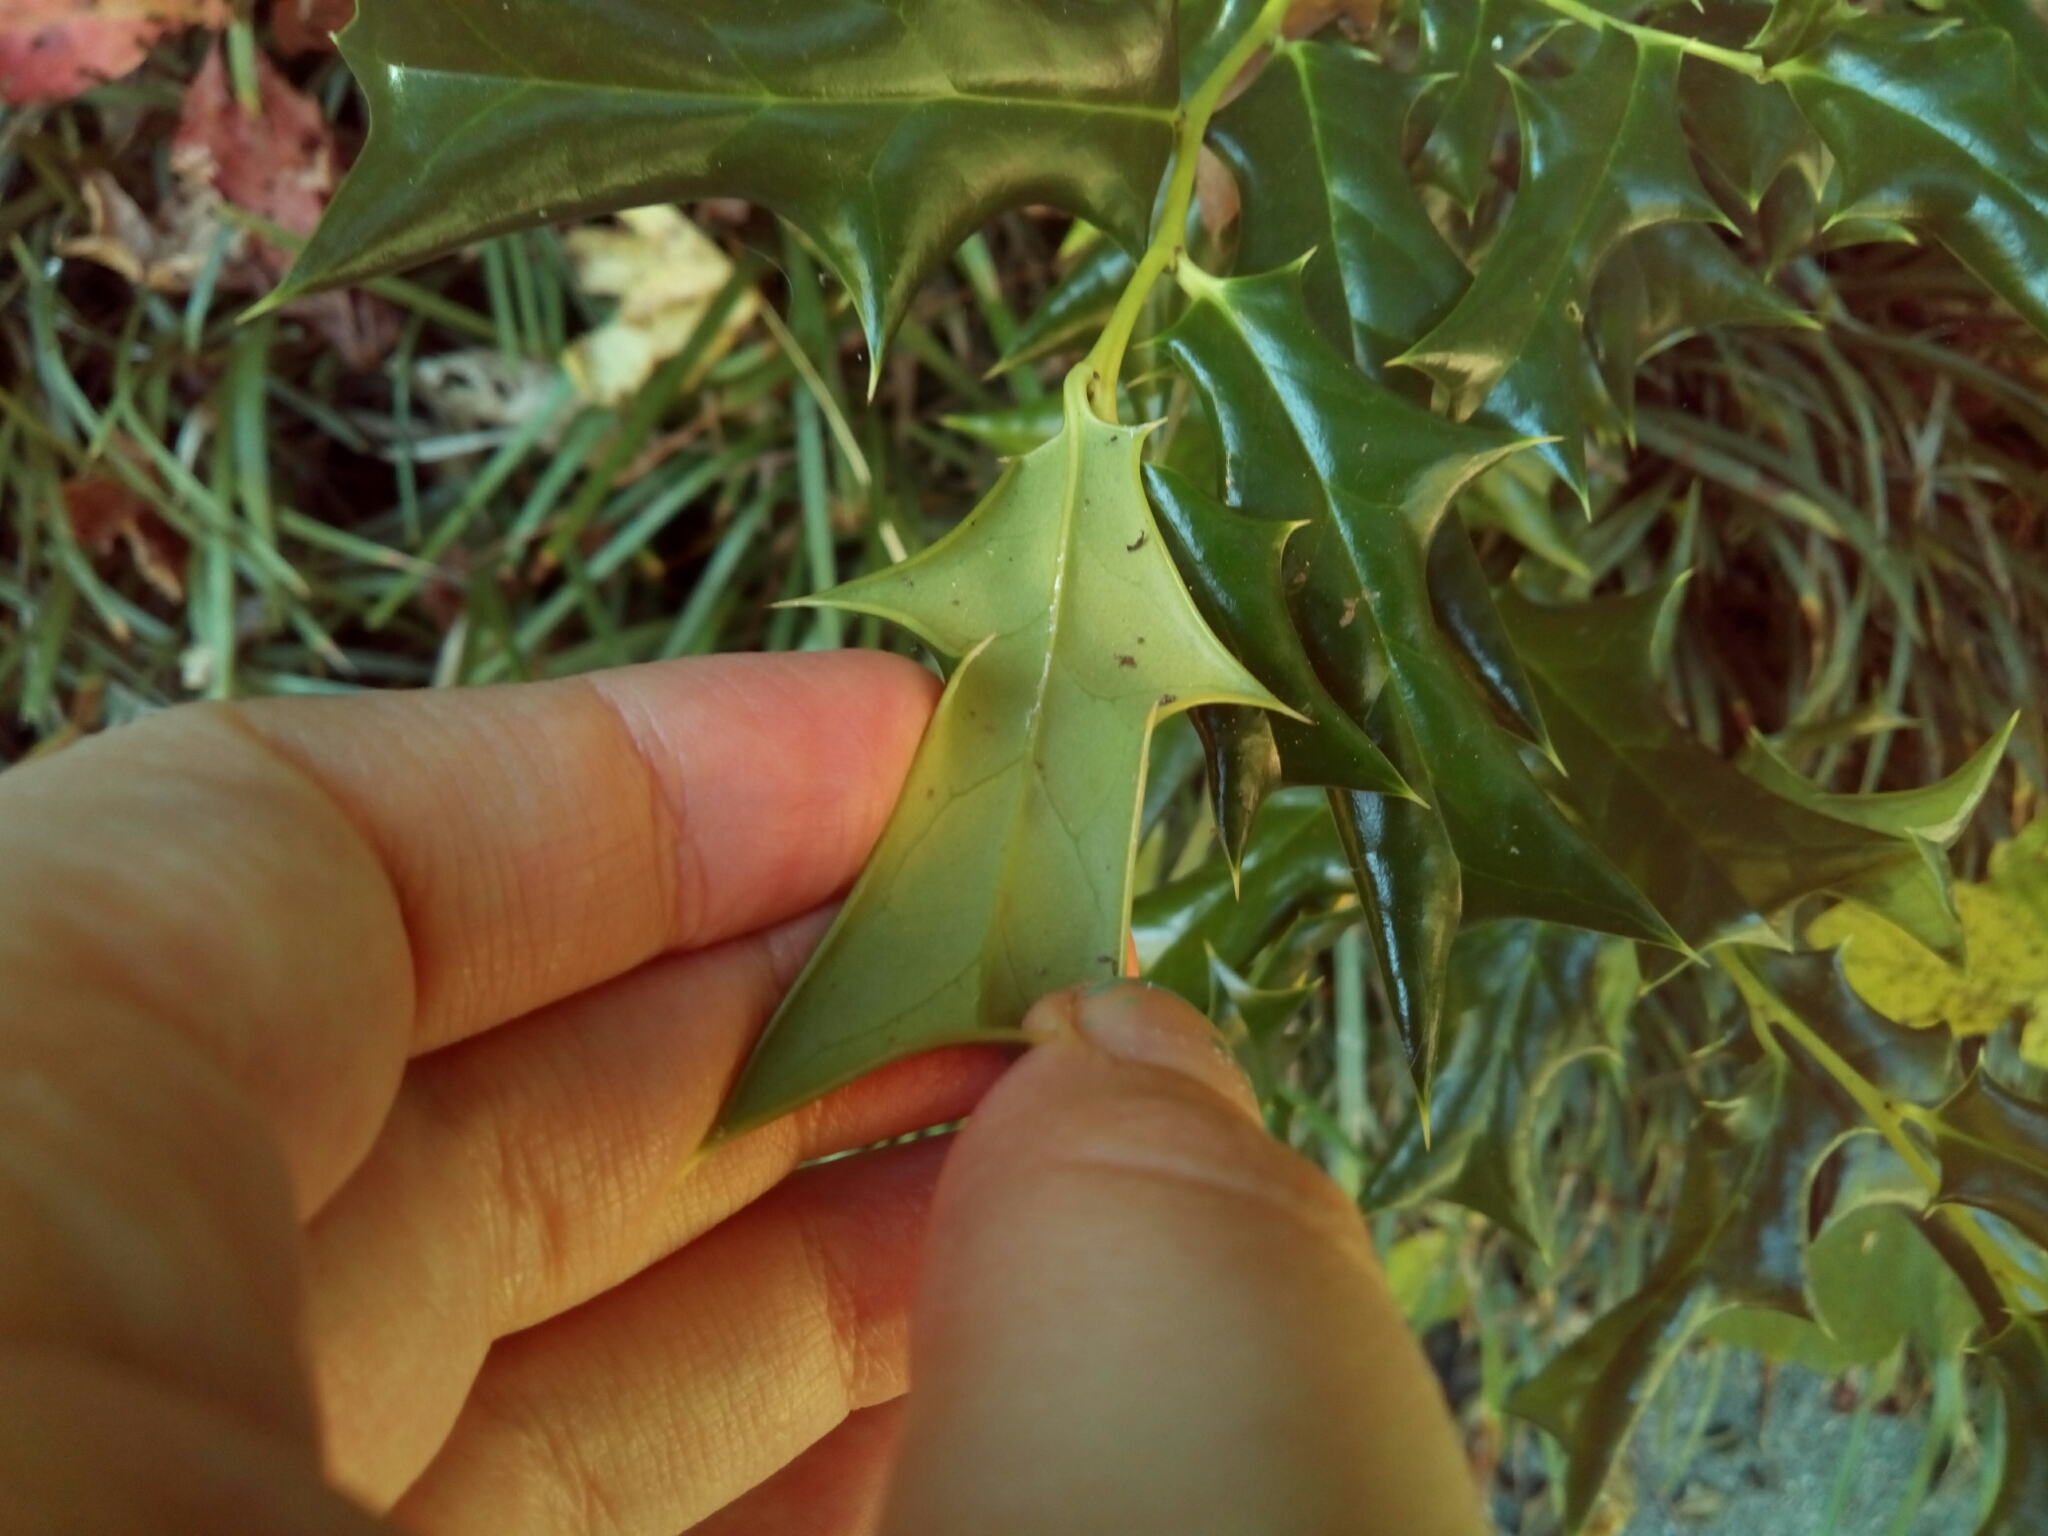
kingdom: Plantae
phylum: Tracheophyta
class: Magnoliopsida
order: Aquifoliales
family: Aquifoliaceae
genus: Ilex
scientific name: Ilex cornuta
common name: Chinese holly
